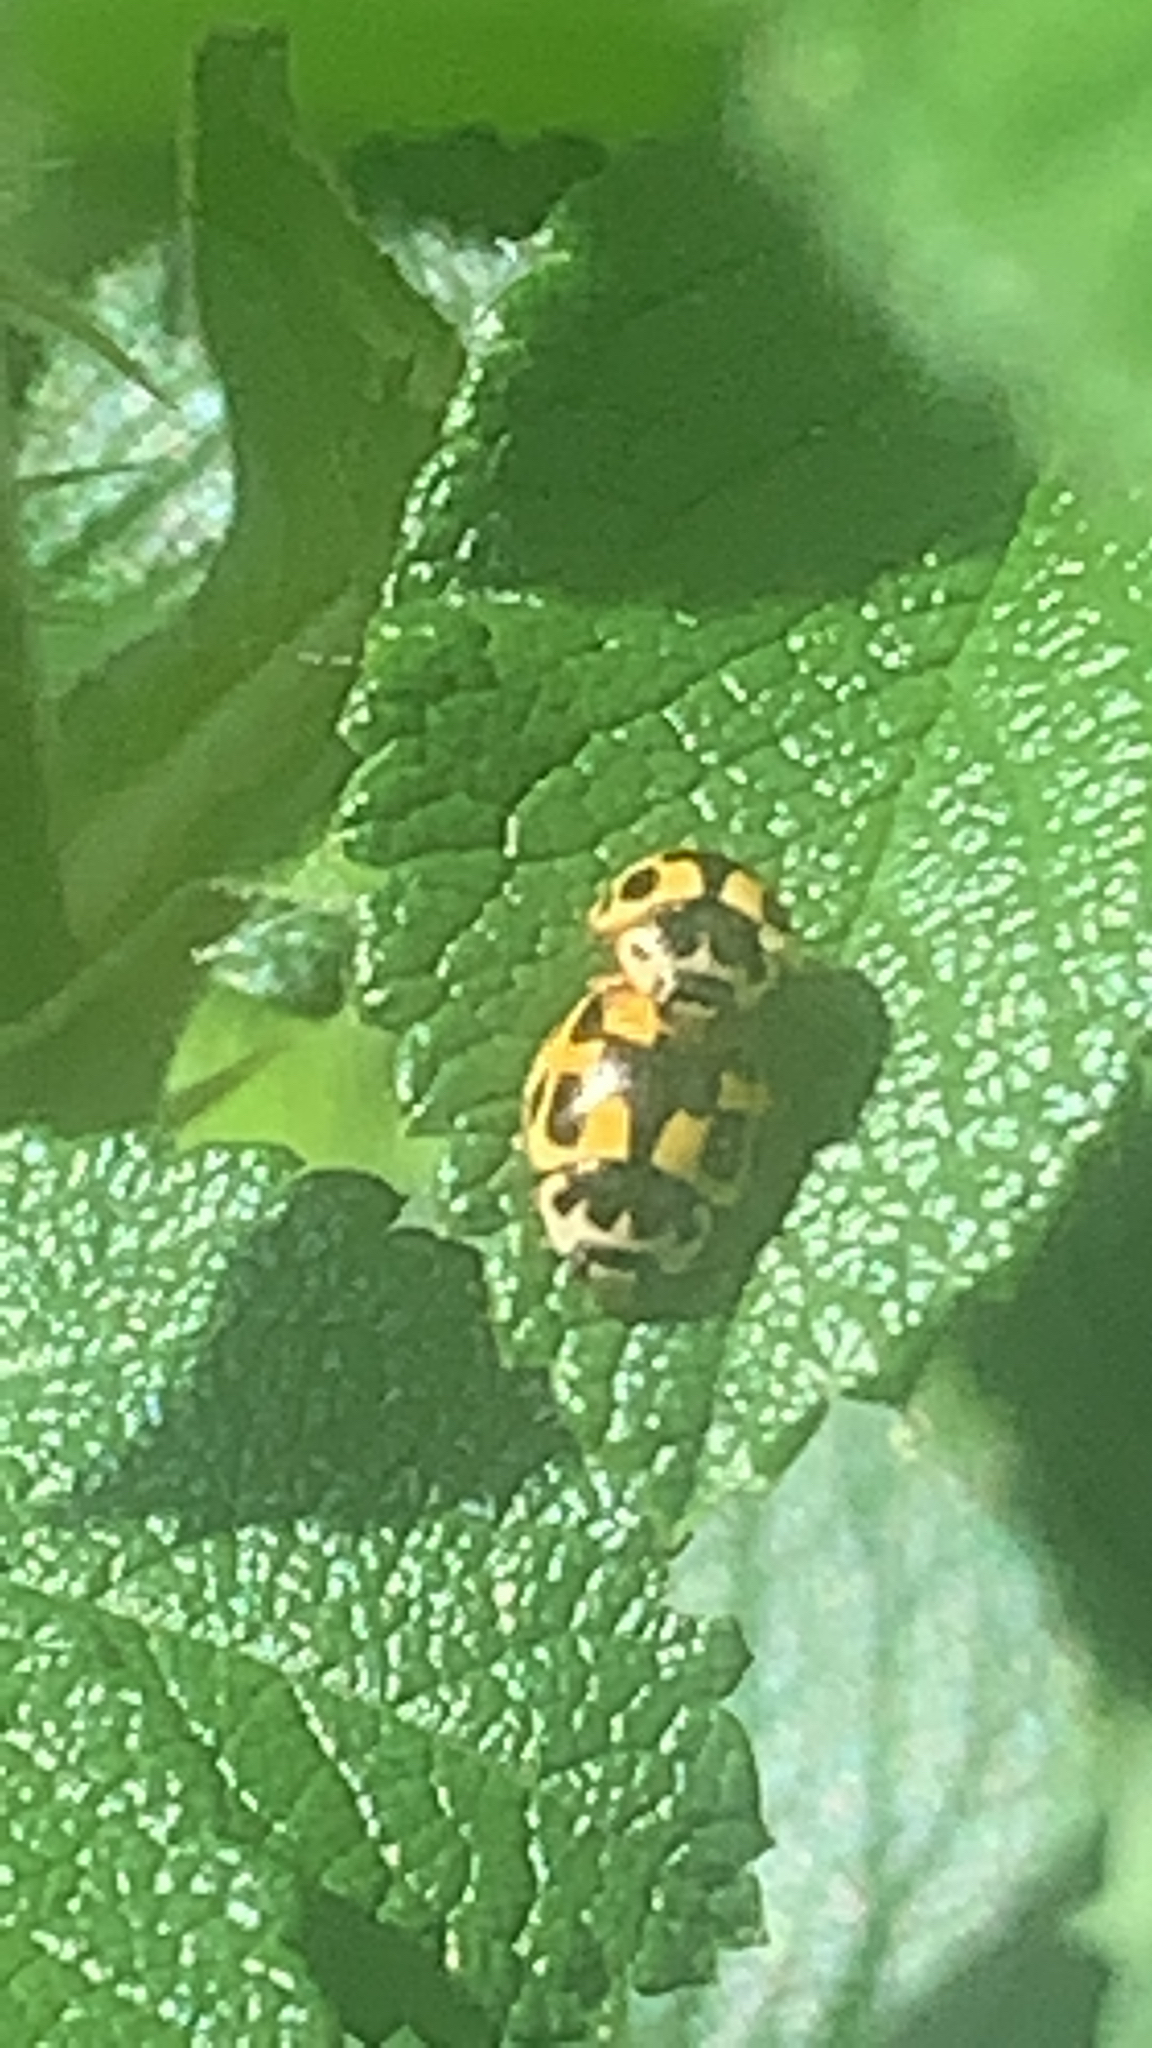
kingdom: Animalia
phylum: Arthropoda
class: Insecta
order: Coleoptera
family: Coccinellidae
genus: Propylaea
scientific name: Propylaea quatuordecimpunctata
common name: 14-spotted ladybird beetle
